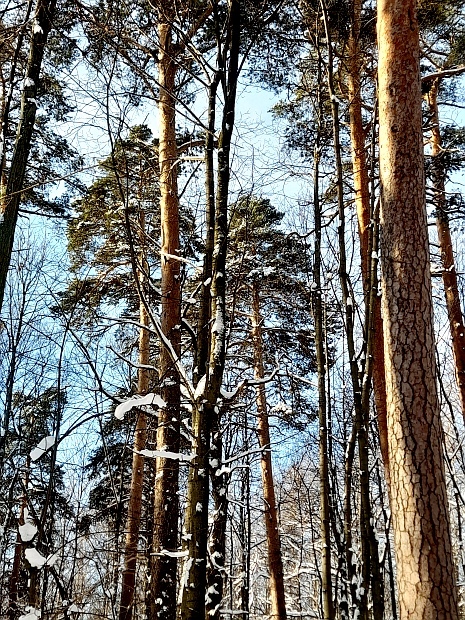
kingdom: Plantae
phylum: Tracheophyta
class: Pinopsida
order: Pinales
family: Pinaceae
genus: Pinus
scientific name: Pinus sylvestris
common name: Scots pine
